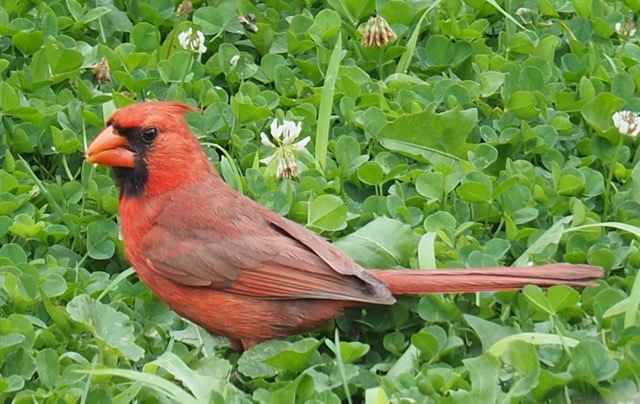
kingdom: Animalia
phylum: Chordata
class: Aves
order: Passeriformes
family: Cardinalidae
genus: Cardinalis
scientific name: Cardinalis cardinalis
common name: Northern cardinal
